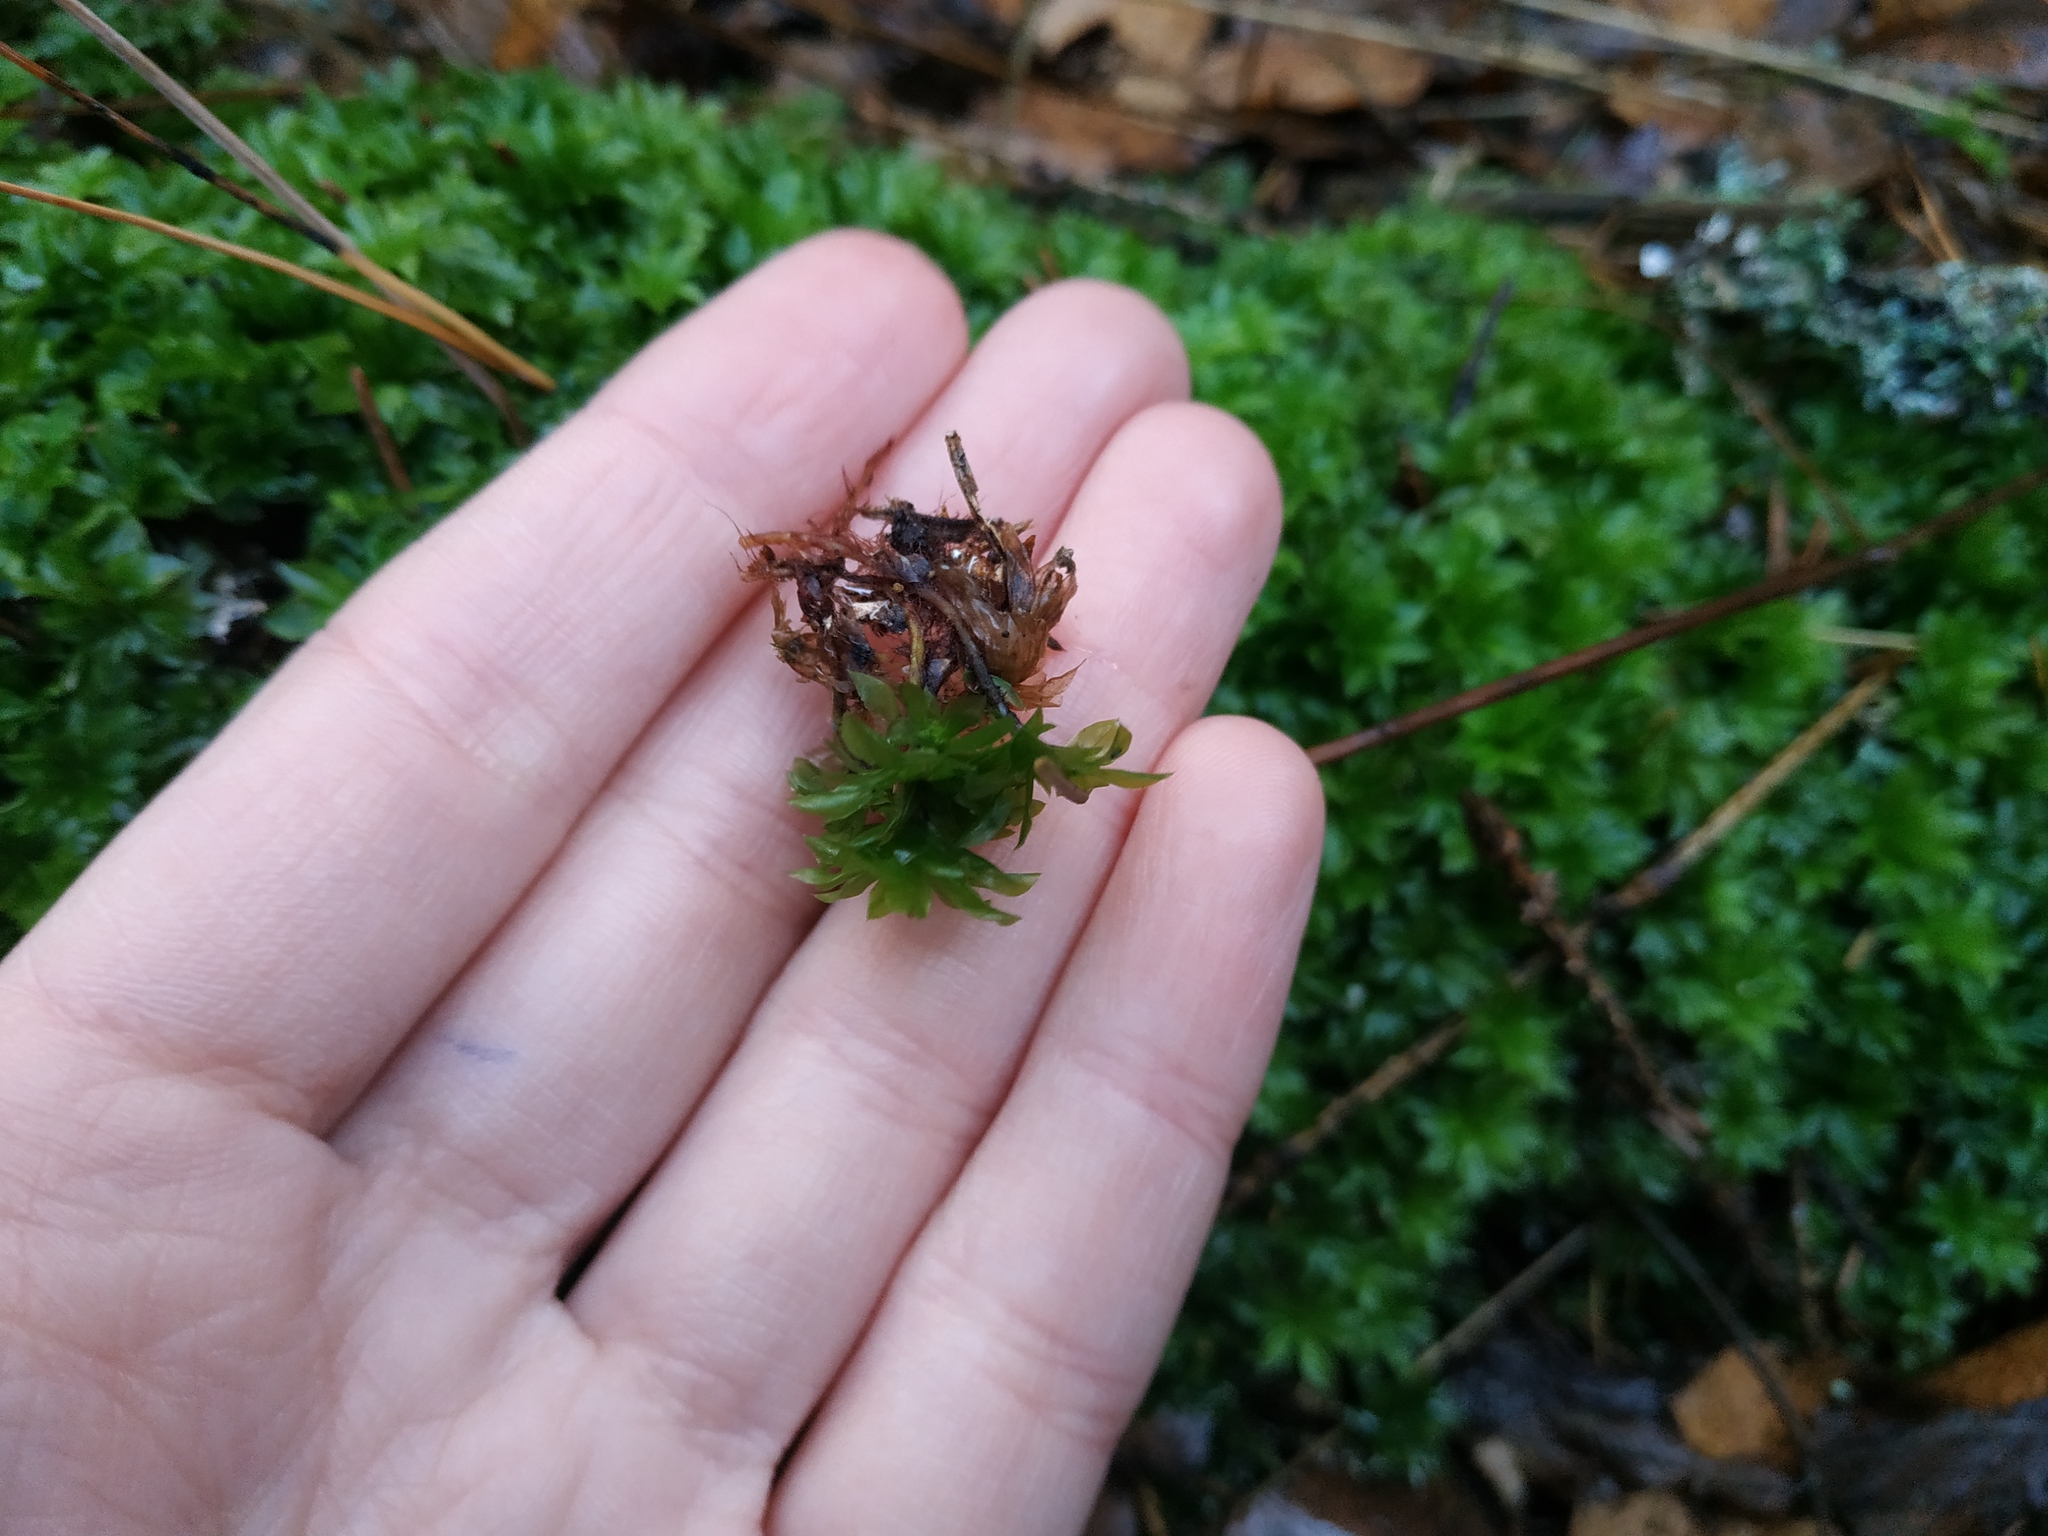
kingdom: Plantae
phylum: Bryophyta
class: Bryopsida
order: Bryales
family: Bryaceae
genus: Rhodobryum
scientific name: Rhodobryum roseum
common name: Rose-moss
